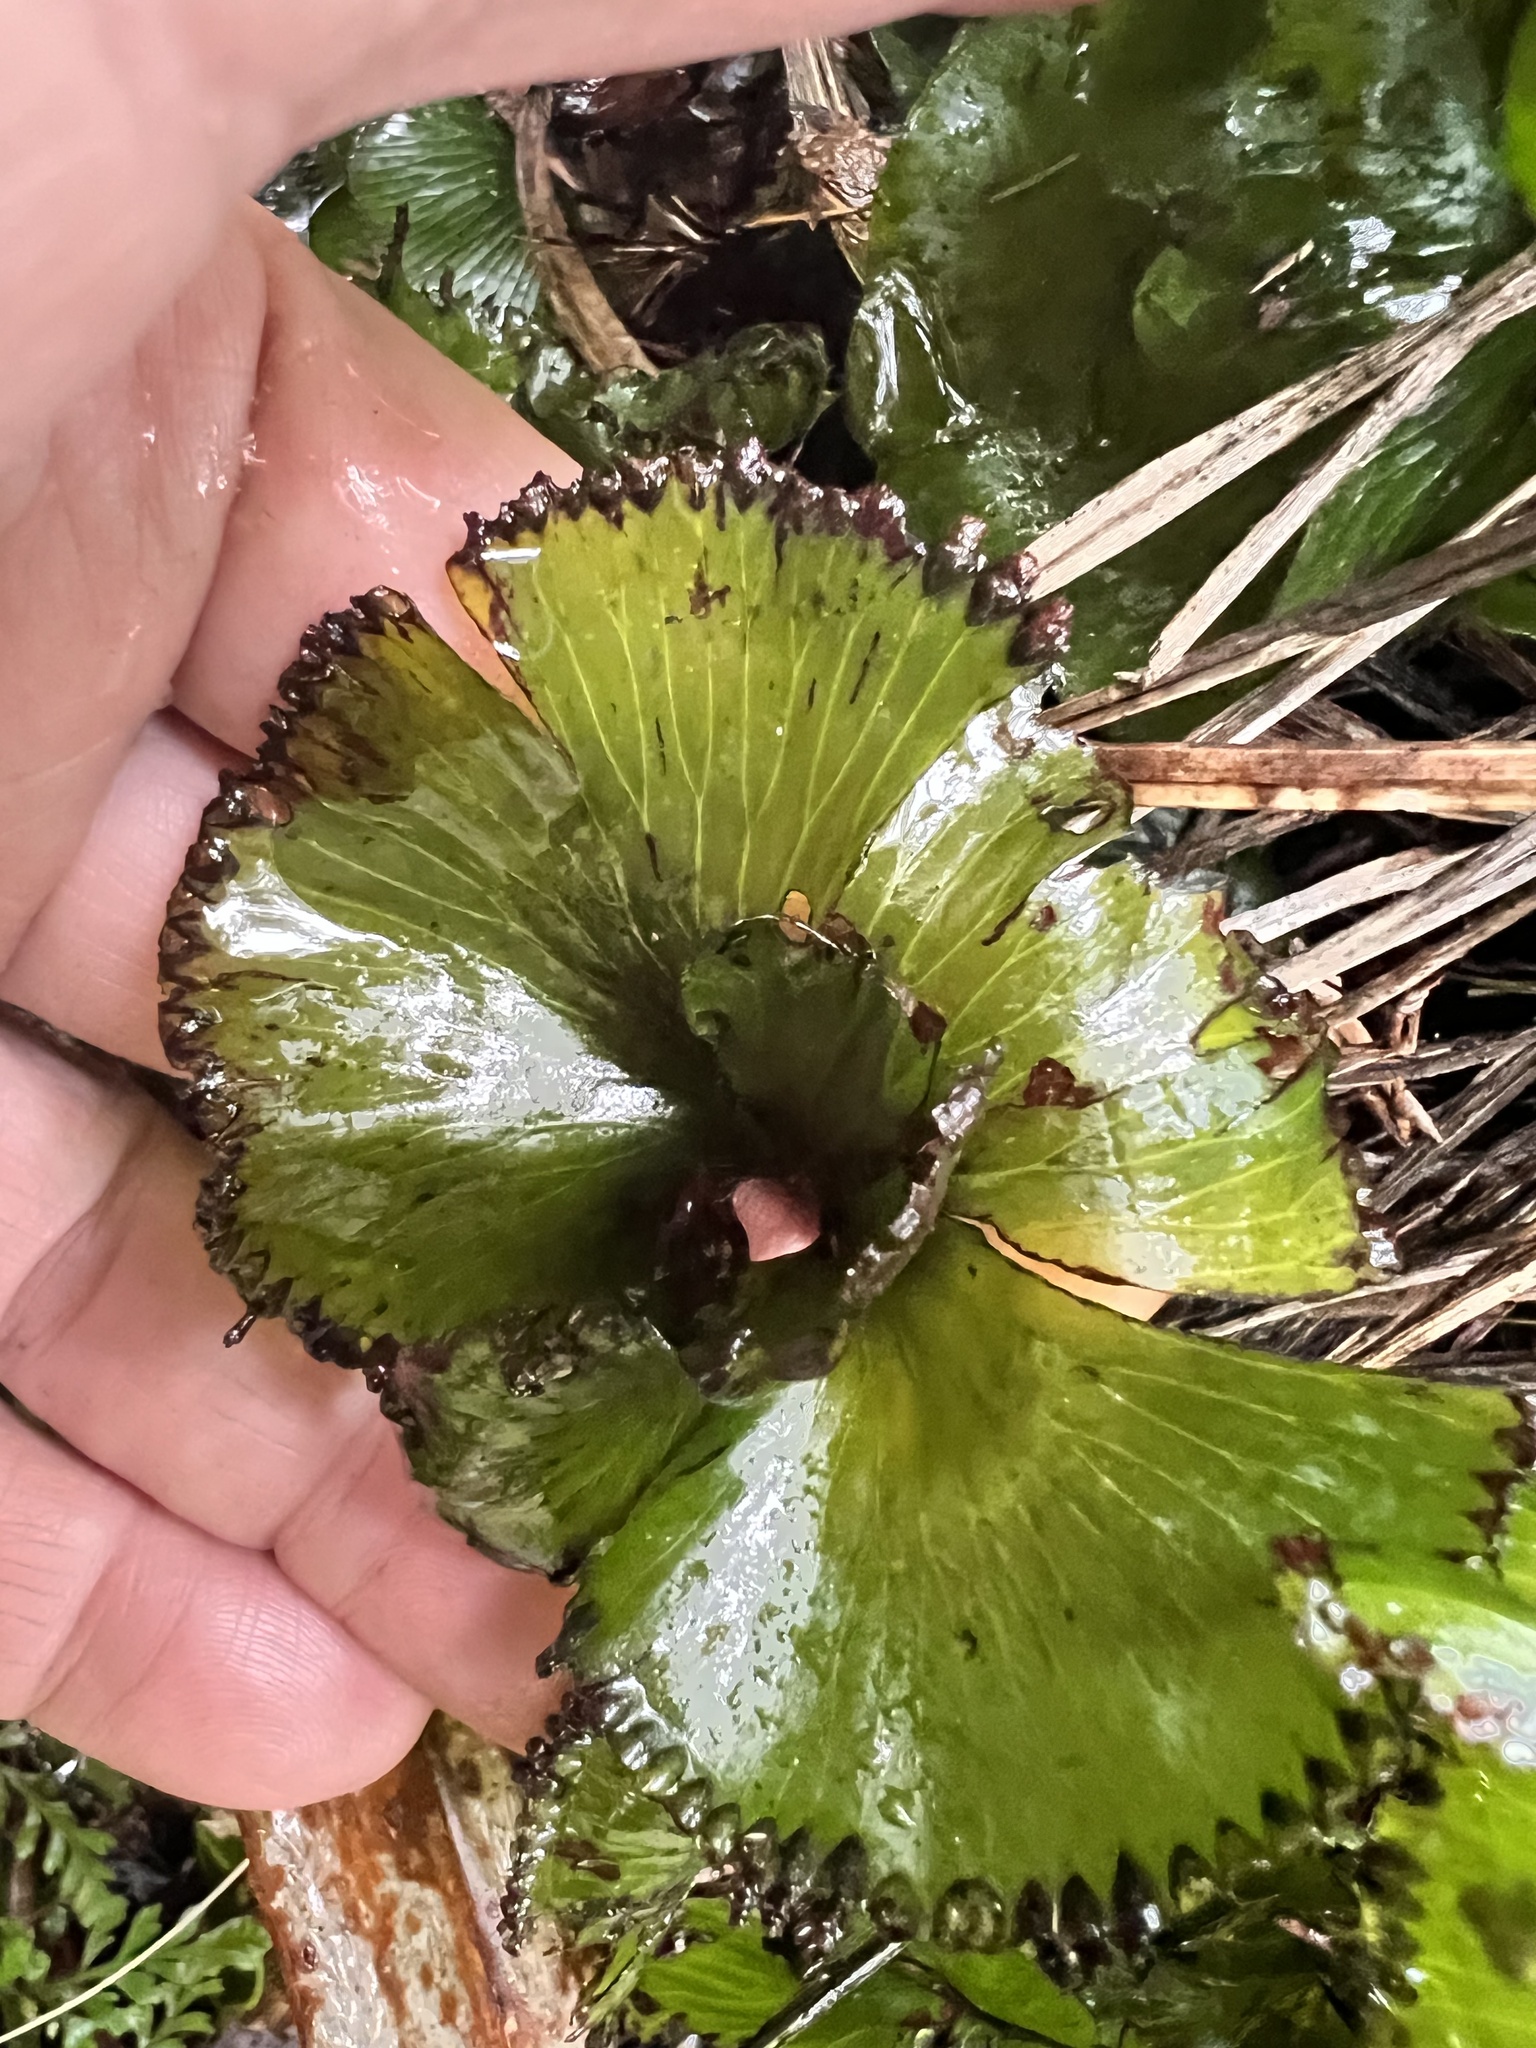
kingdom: Plantae
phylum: Tracheophyta
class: Polypodiopsida
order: Hymenophyllales
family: Hymenophyllaceae
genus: Hymenophyllum
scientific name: Hymenophyllum nephrophyllum
